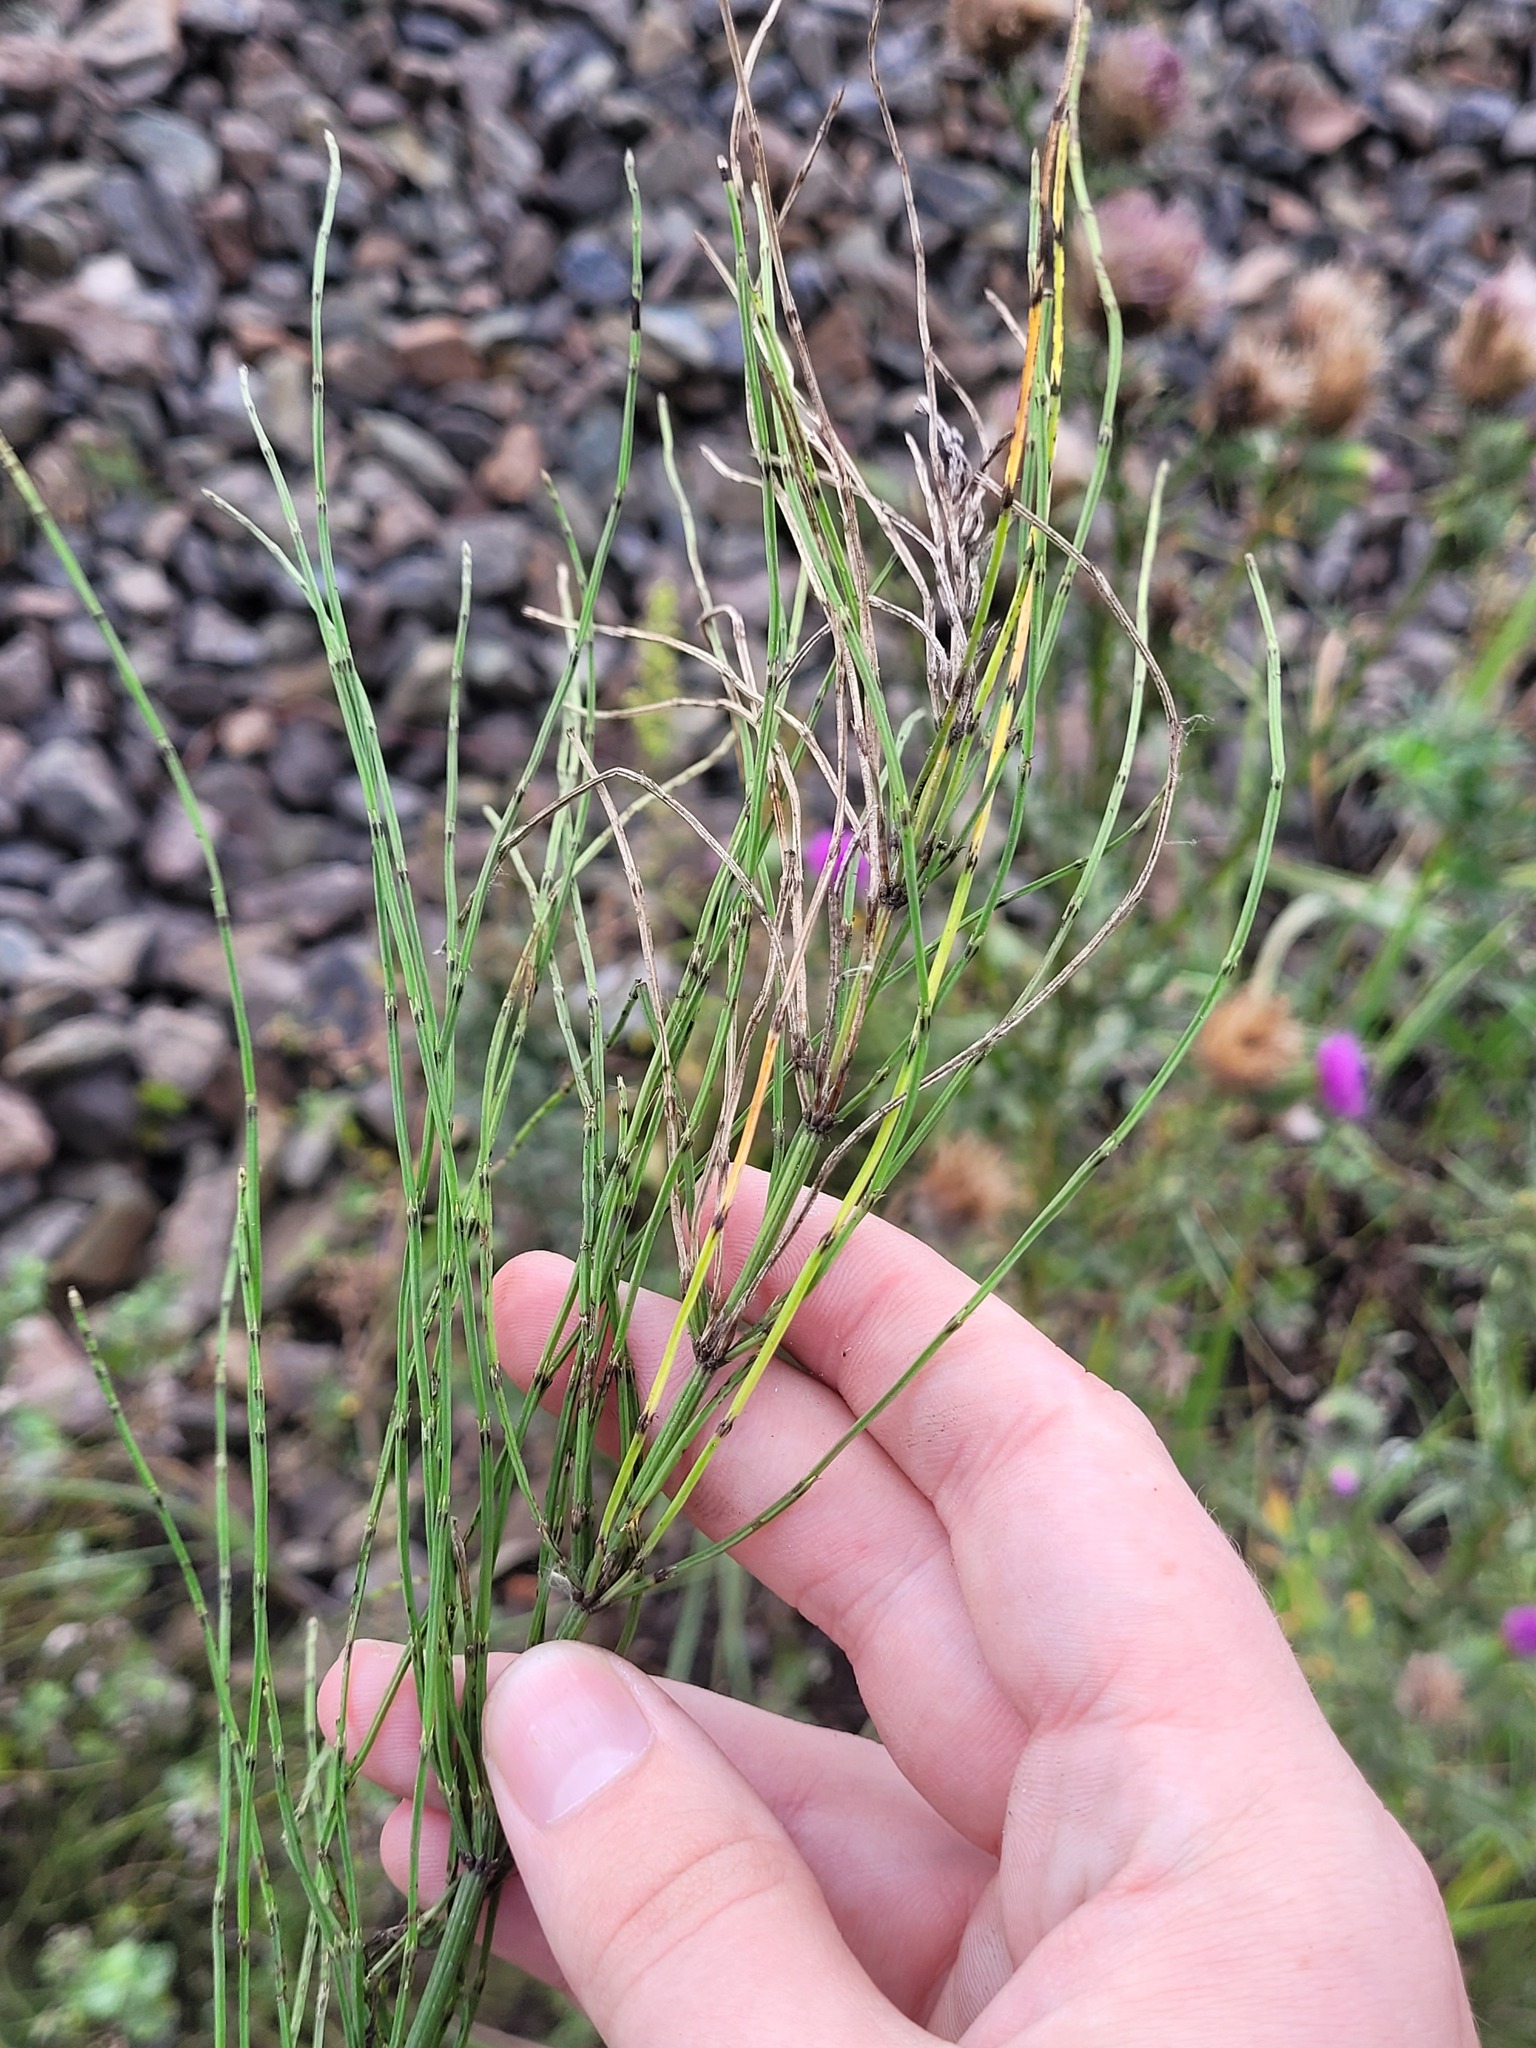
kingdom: Plantae
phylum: Tracheophyta
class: Polypodiopsida
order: Equisetales
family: Equisetaceae
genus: Equisetum
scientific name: Equisetum arvense
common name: Field horsetail
